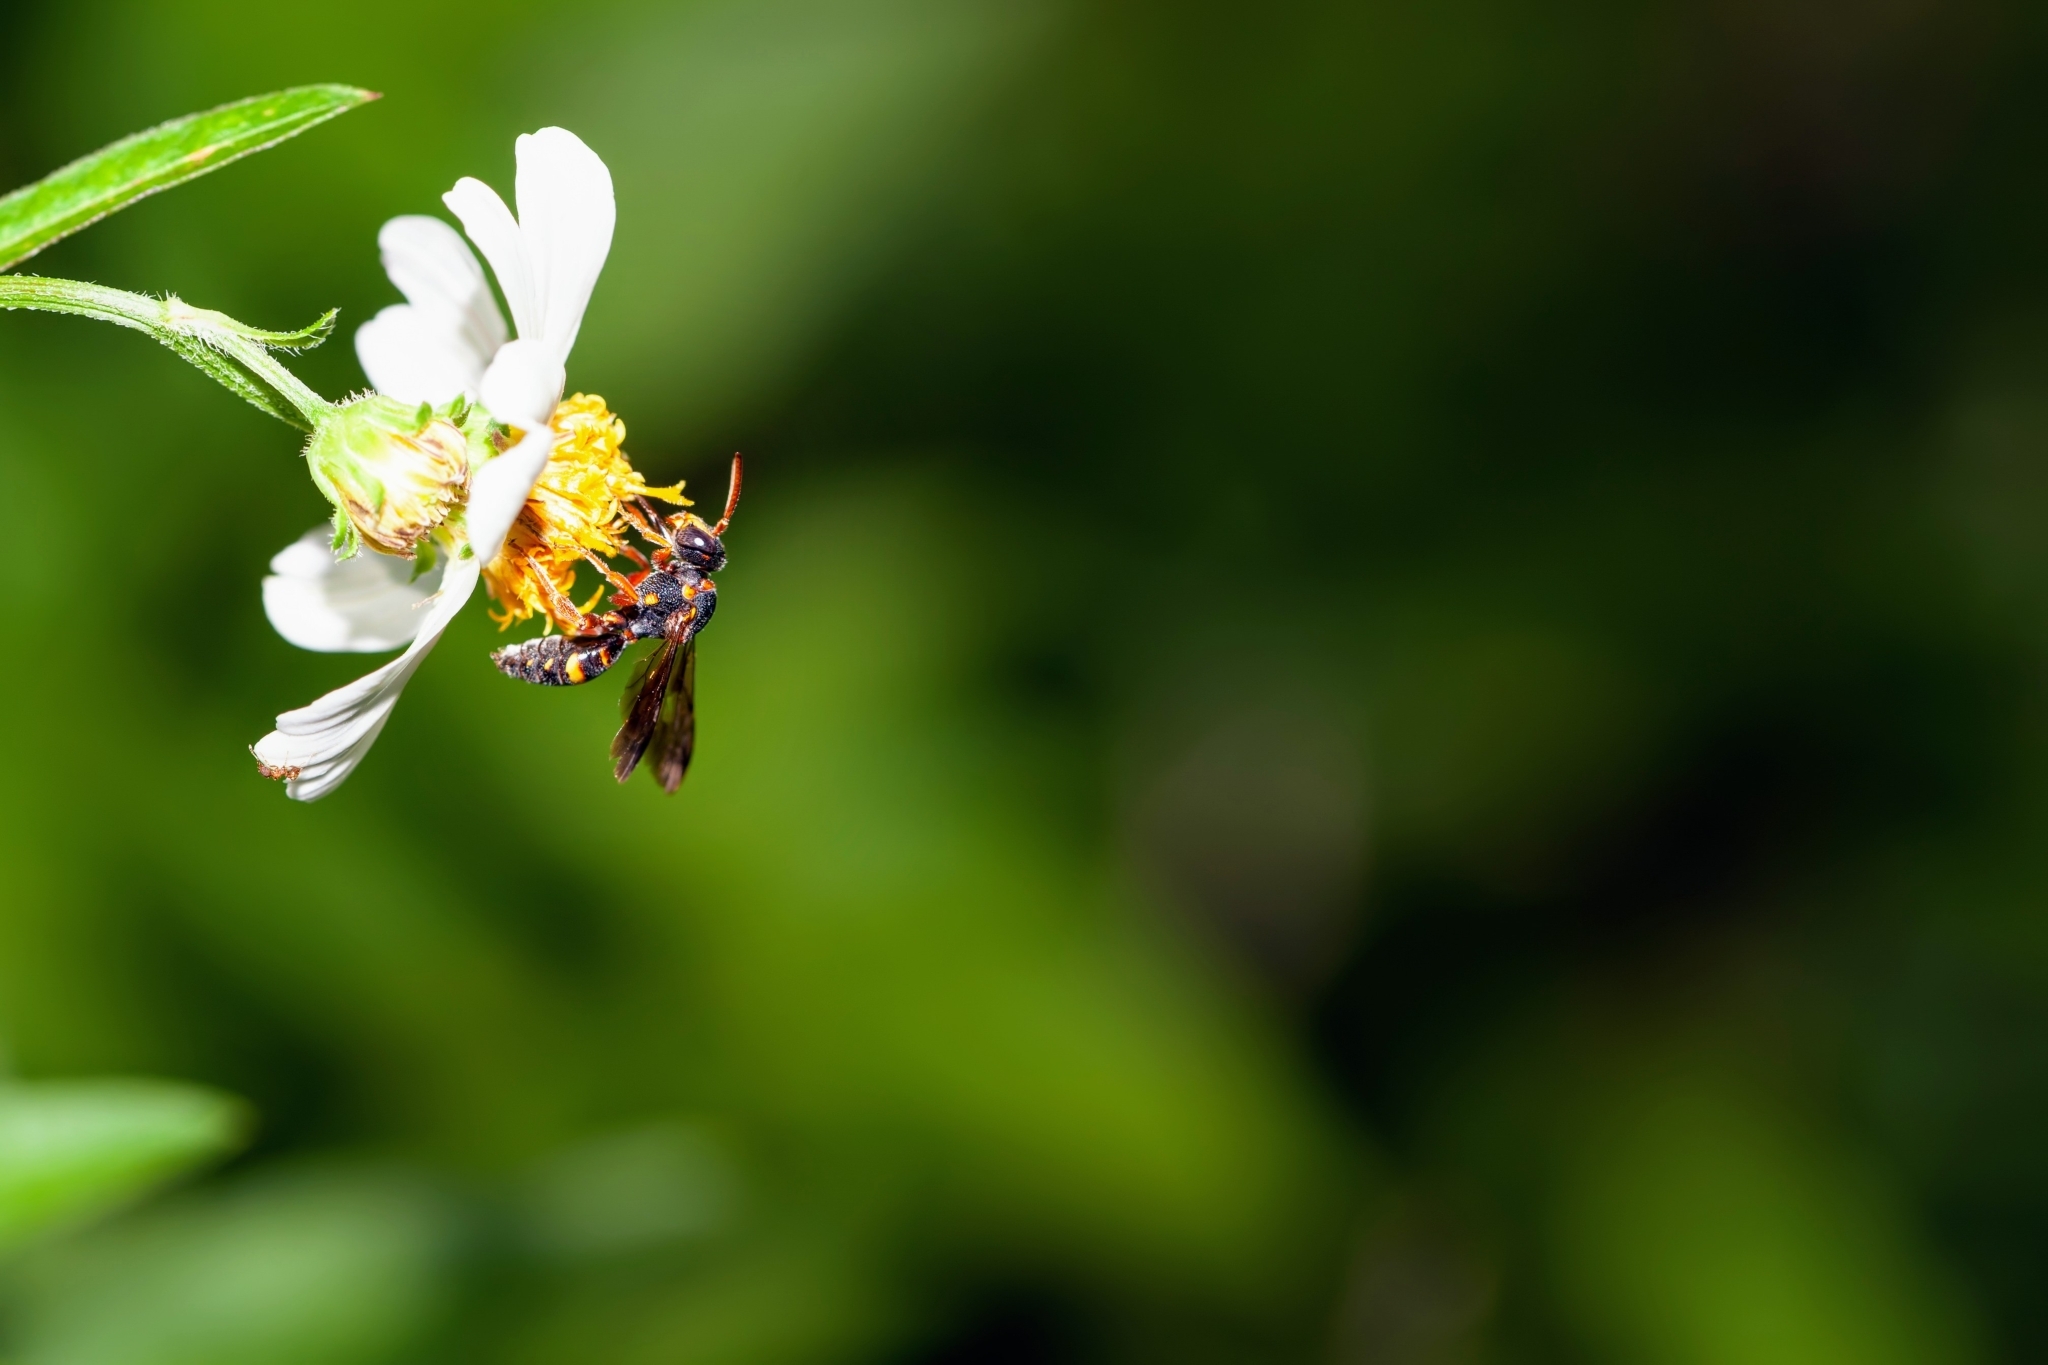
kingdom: Animalia
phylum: Arthropoda
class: Insecta
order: Hymenoptera
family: Apidae
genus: Nomada
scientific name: Nomada fervida
